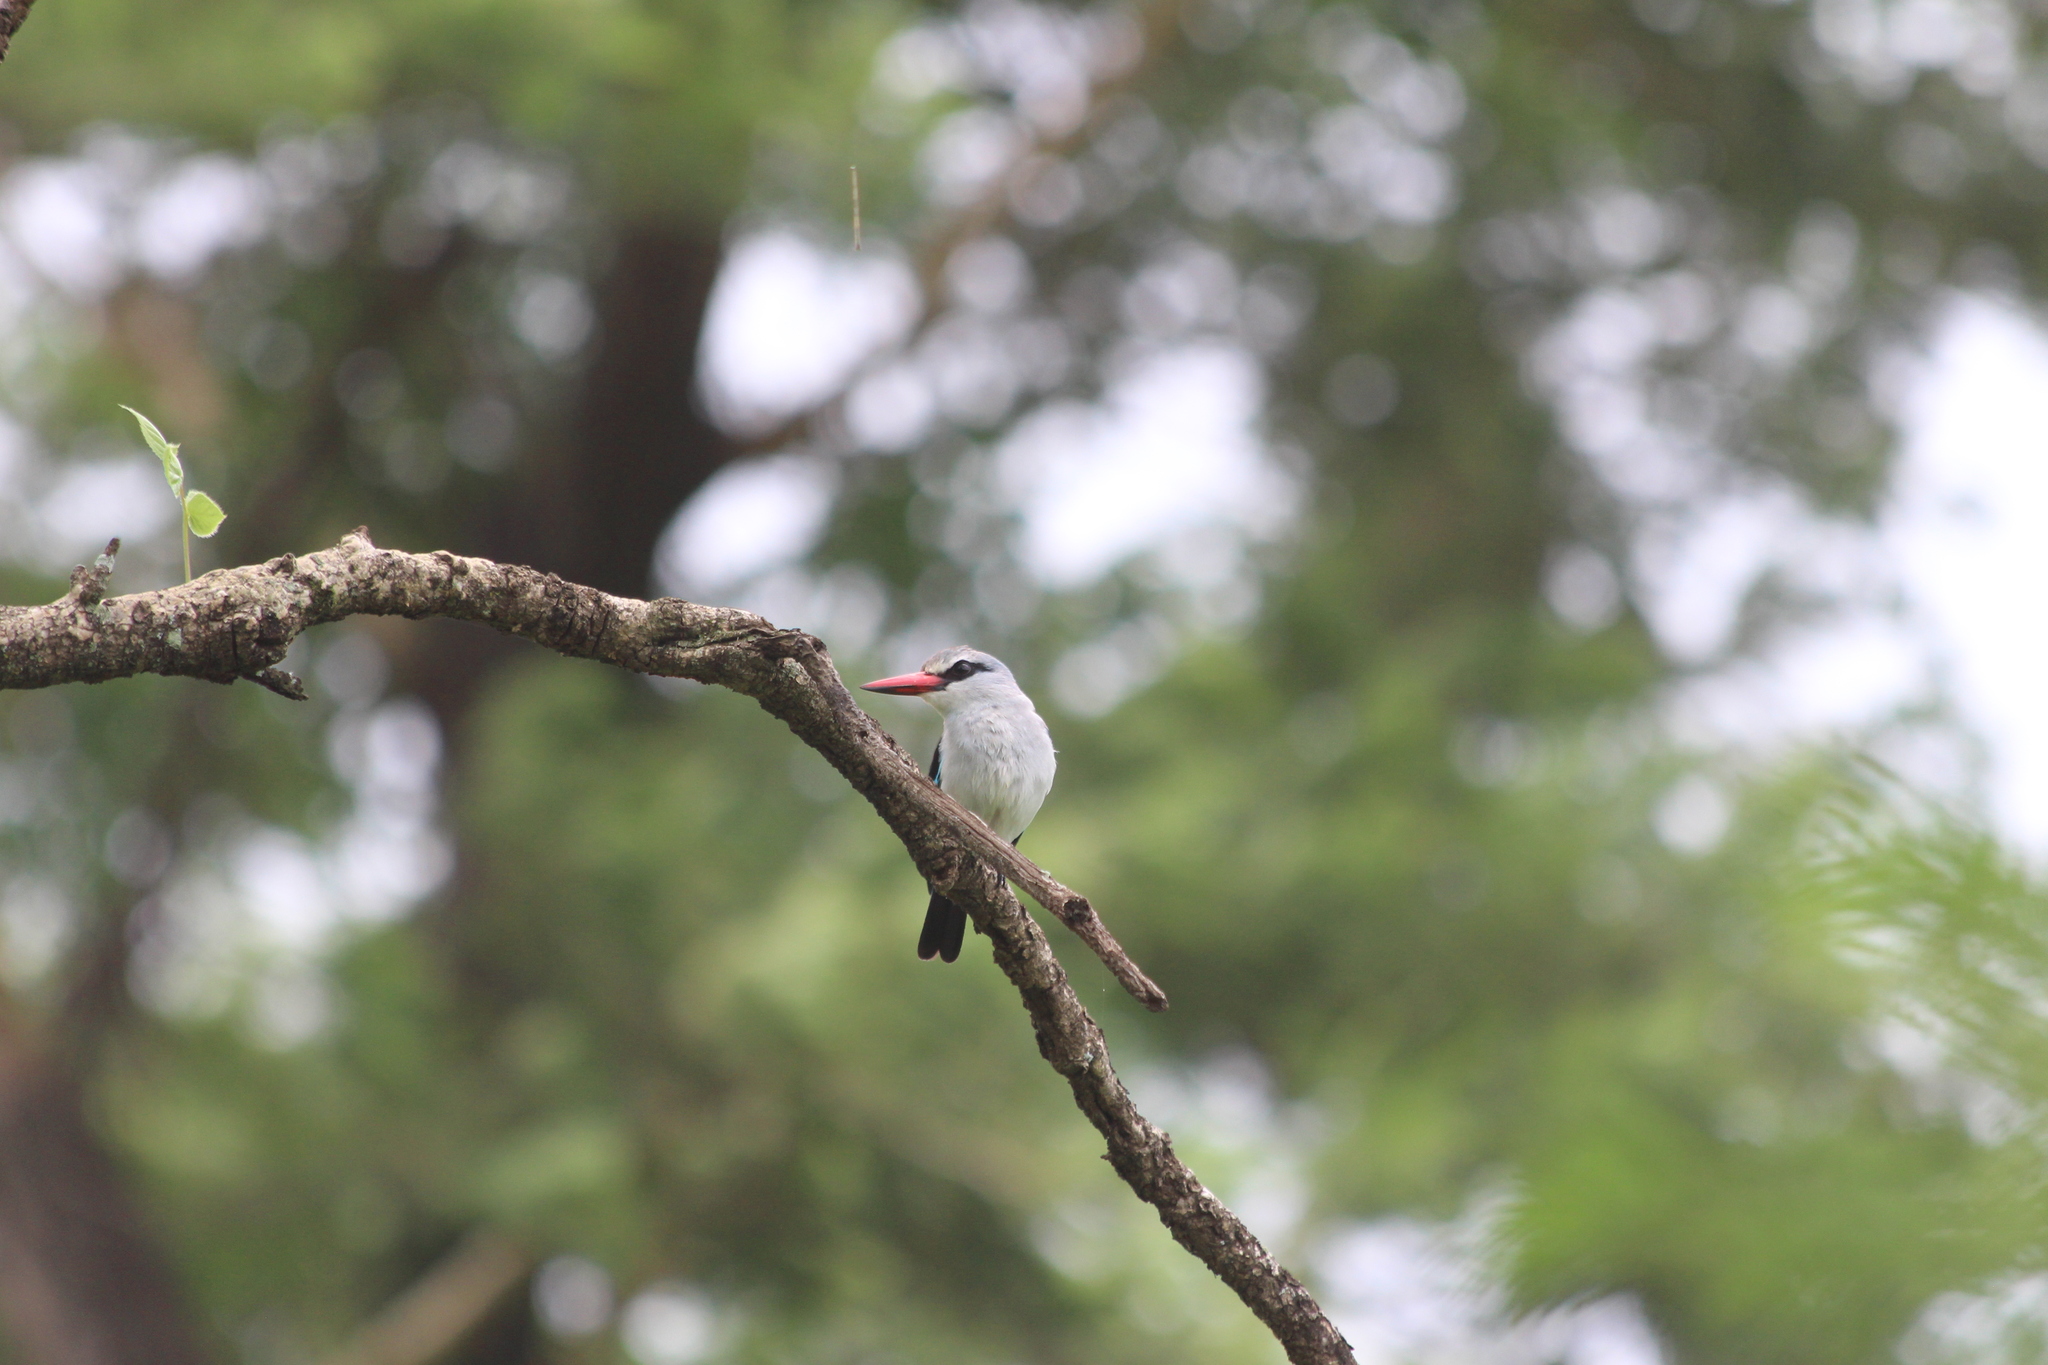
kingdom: Animalia
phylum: Chordata
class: Aves
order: Coraciiformes
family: Alcedinidae
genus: Halcyon
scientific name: Halcyon senegalensis
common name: Woodland kingfisher
